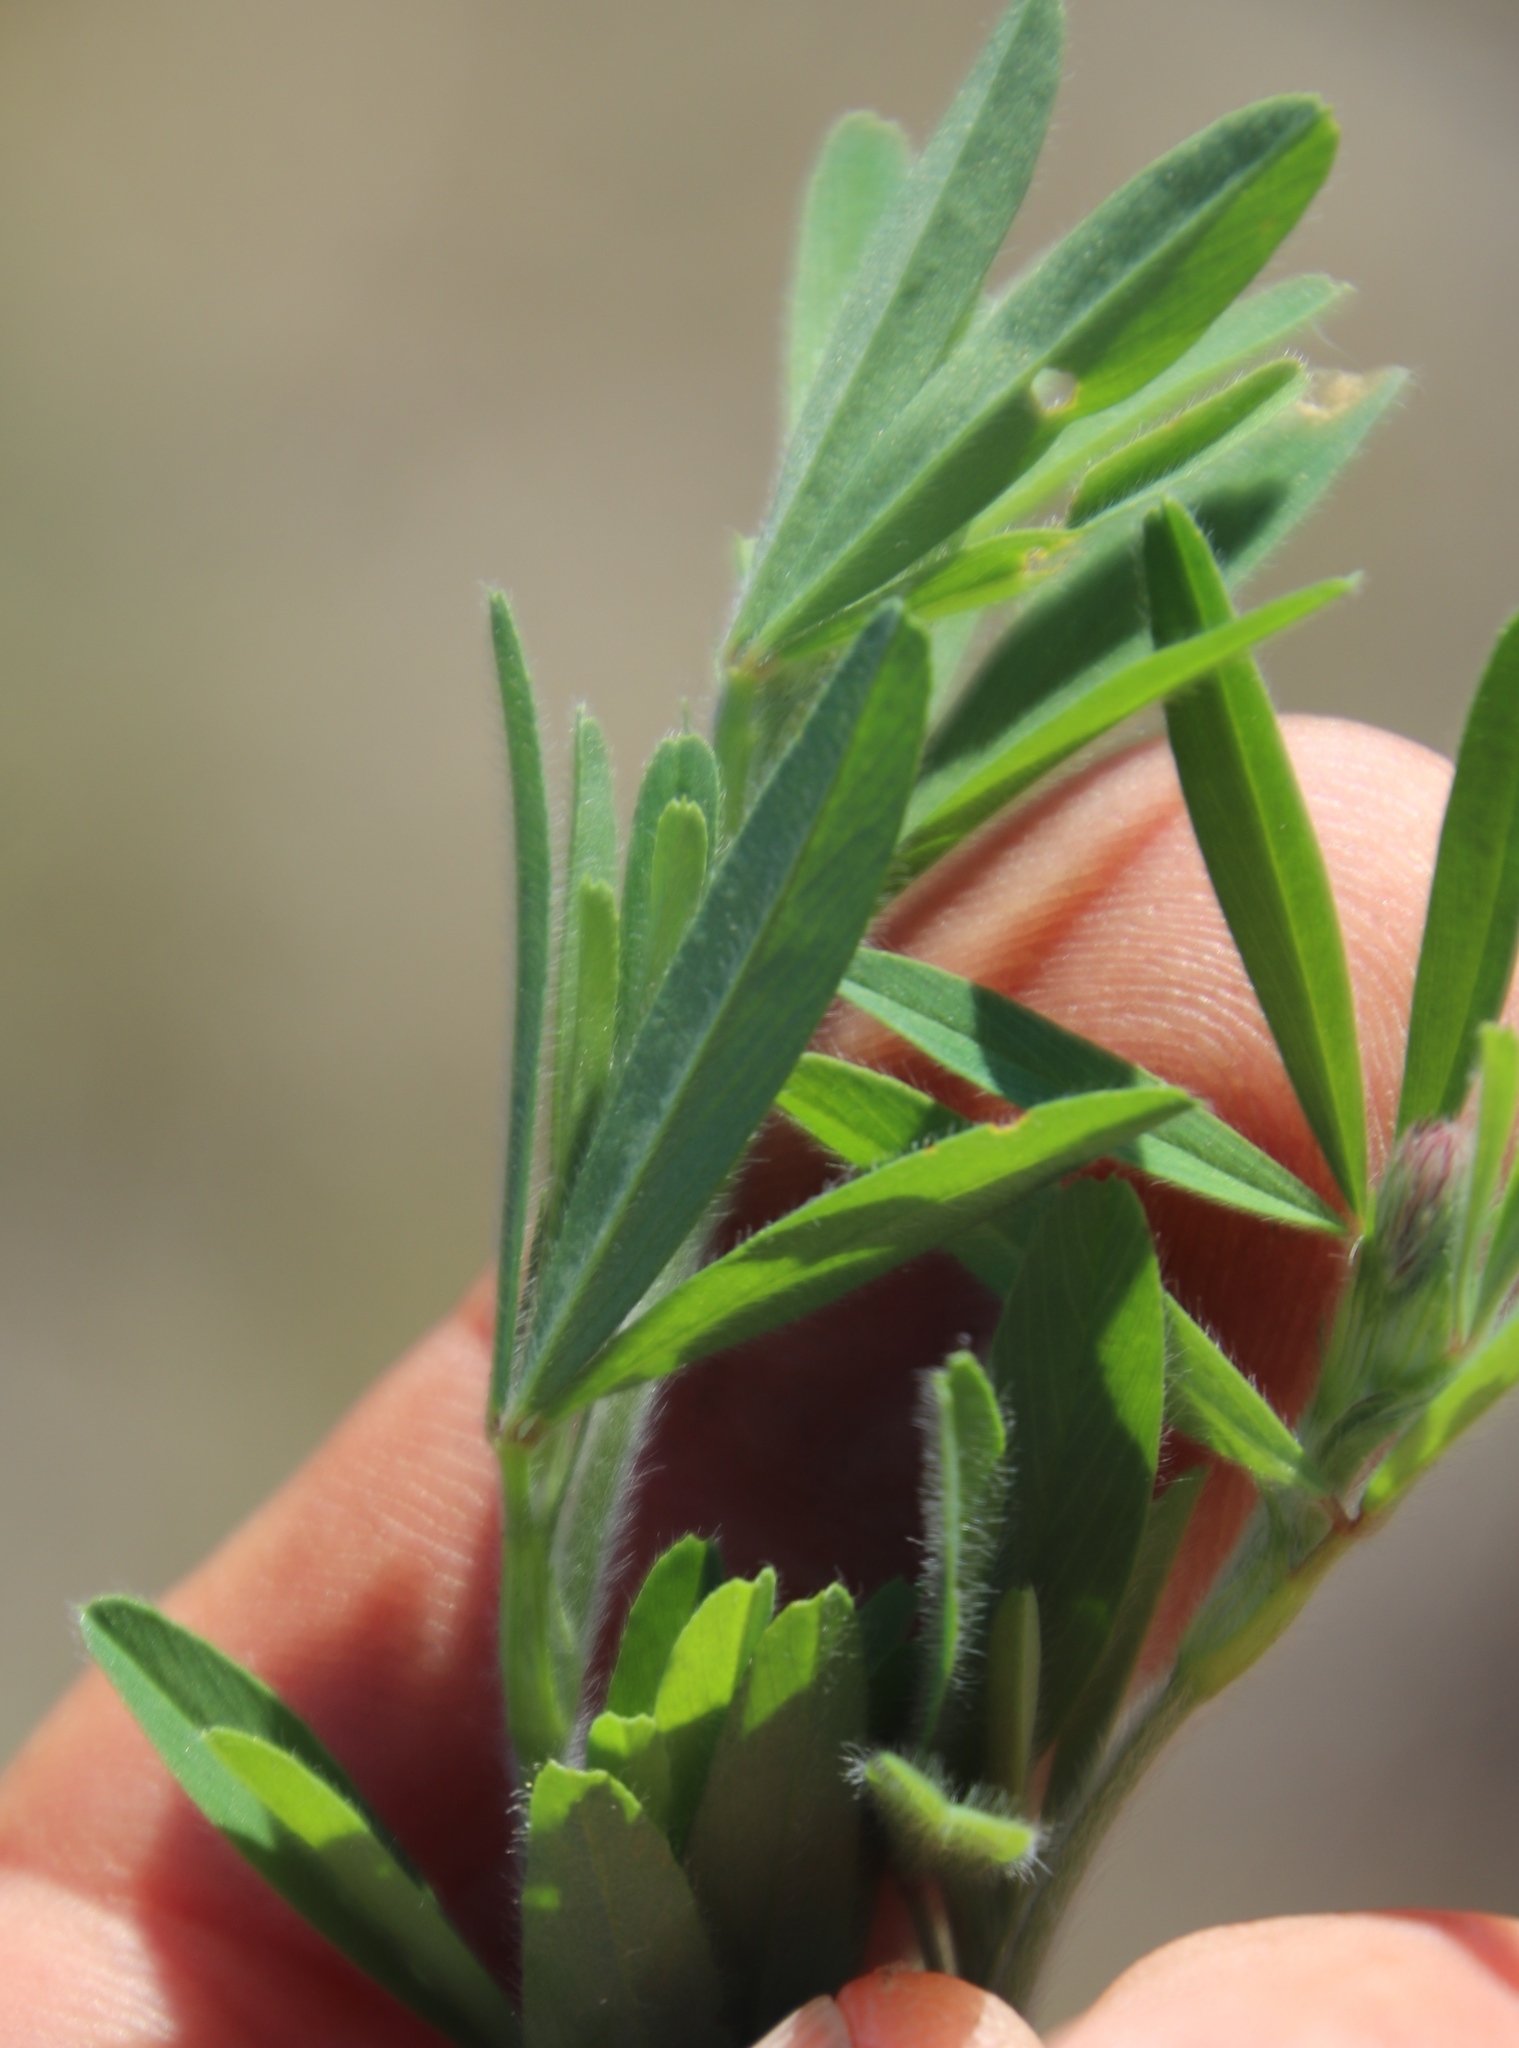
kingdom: Plantae
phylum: Tracheophyta
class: Magnoliopsida
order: Fabales
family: Fabaceae
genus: Trifolium
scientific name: Trifolium arvense
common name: Hare's-foot clover
